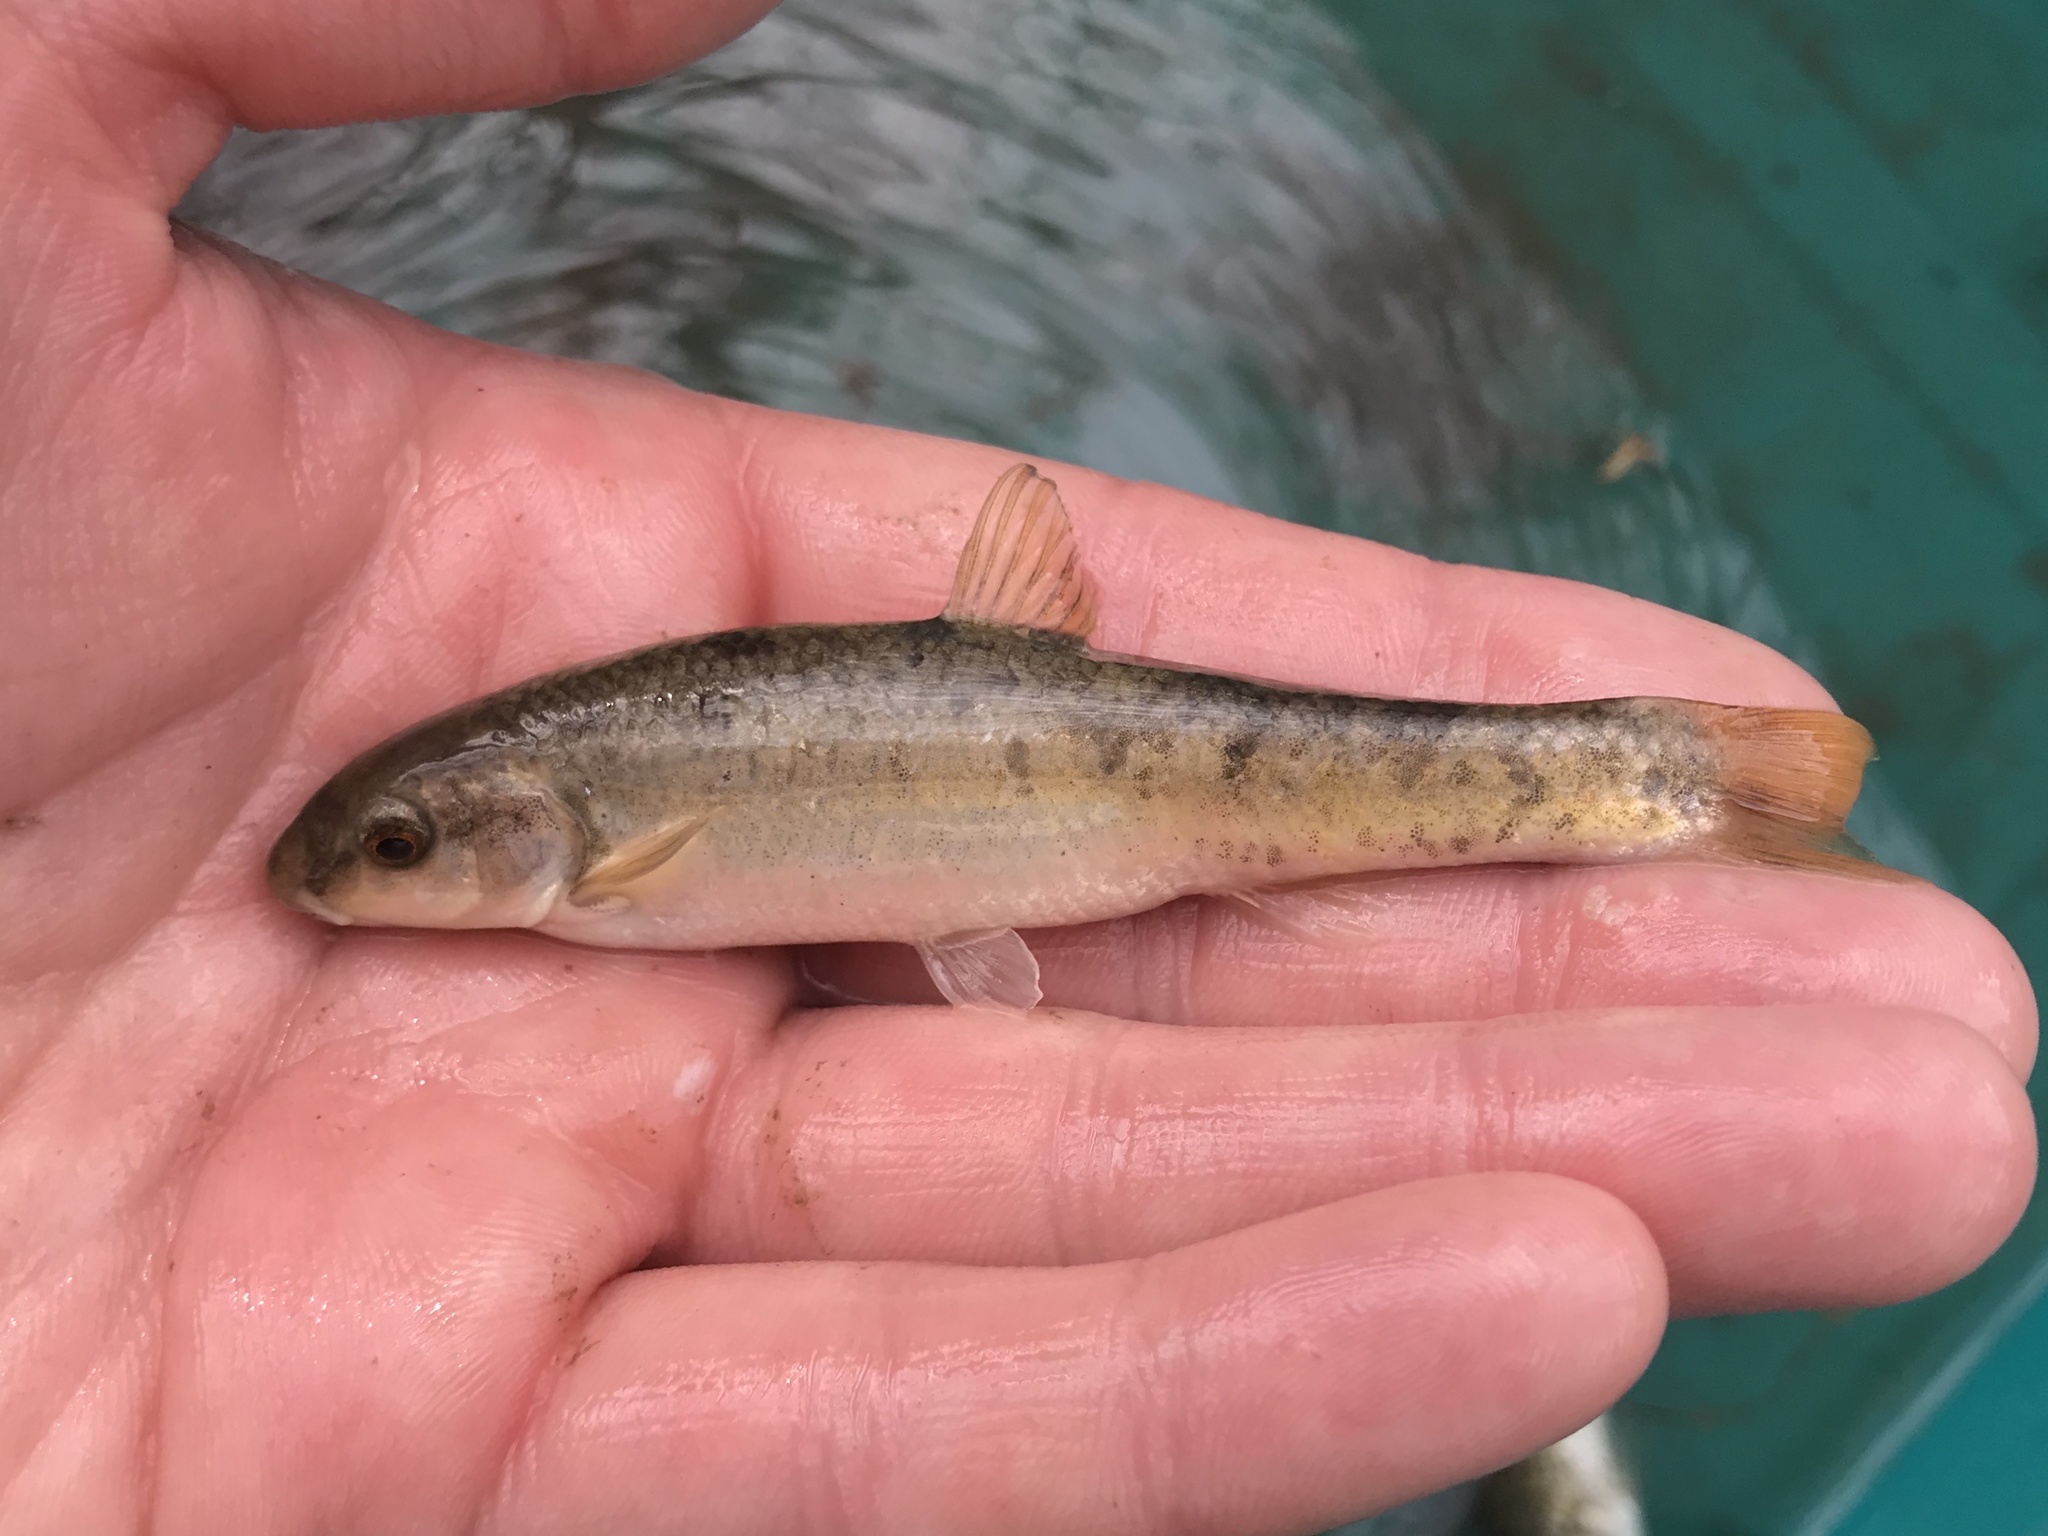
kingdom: Animalia
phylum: Chordata
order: Cypriniformes
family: Cyprinidae
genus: Campostoma
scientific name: Campostoma anomalum
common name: Central stoneroller
